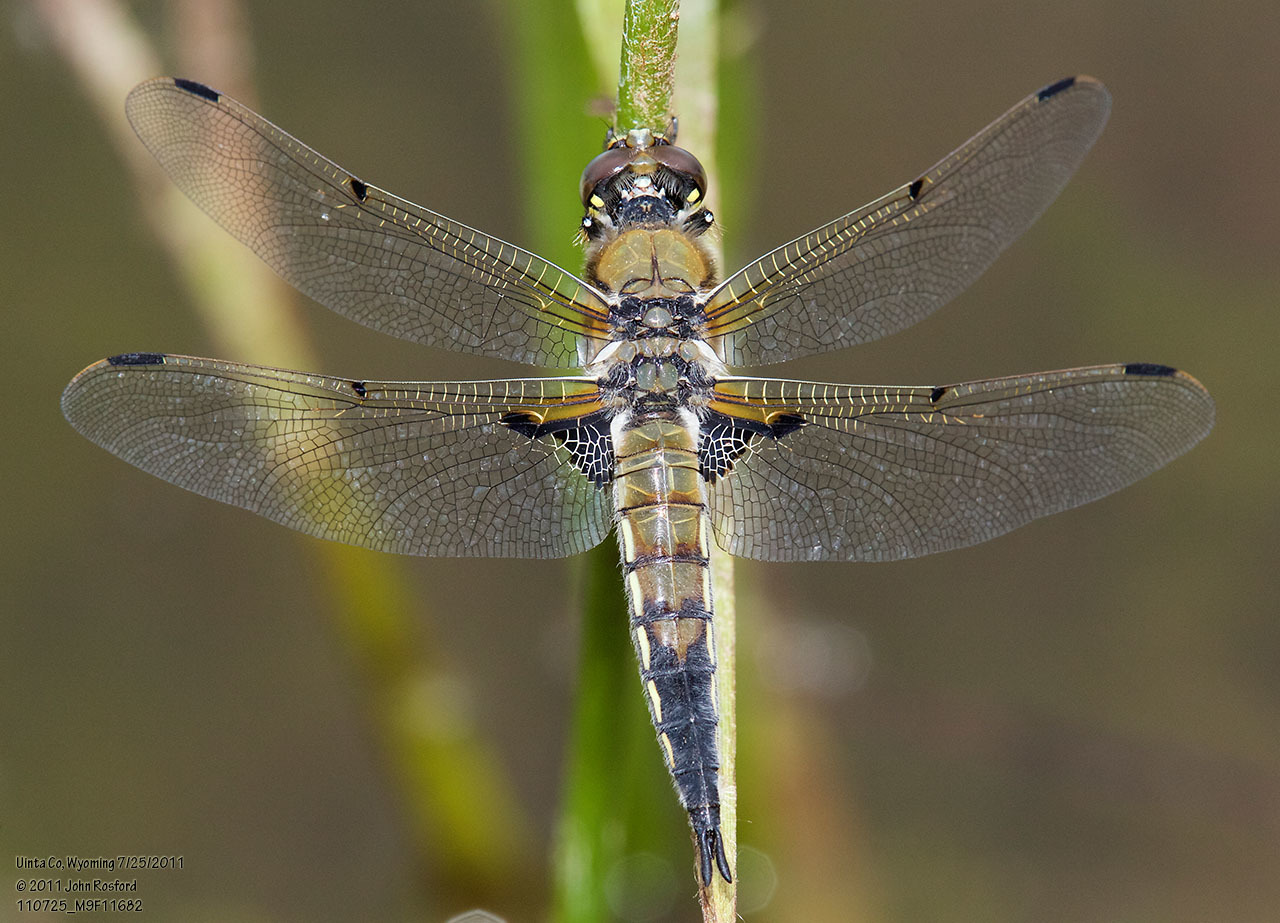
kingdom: Animalia
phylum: Arthropoda
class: Insecta
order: Odonata
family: Libellulidae
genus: Libellula
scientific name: Libellula quadrimaculata
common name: Four-spotted chaser
